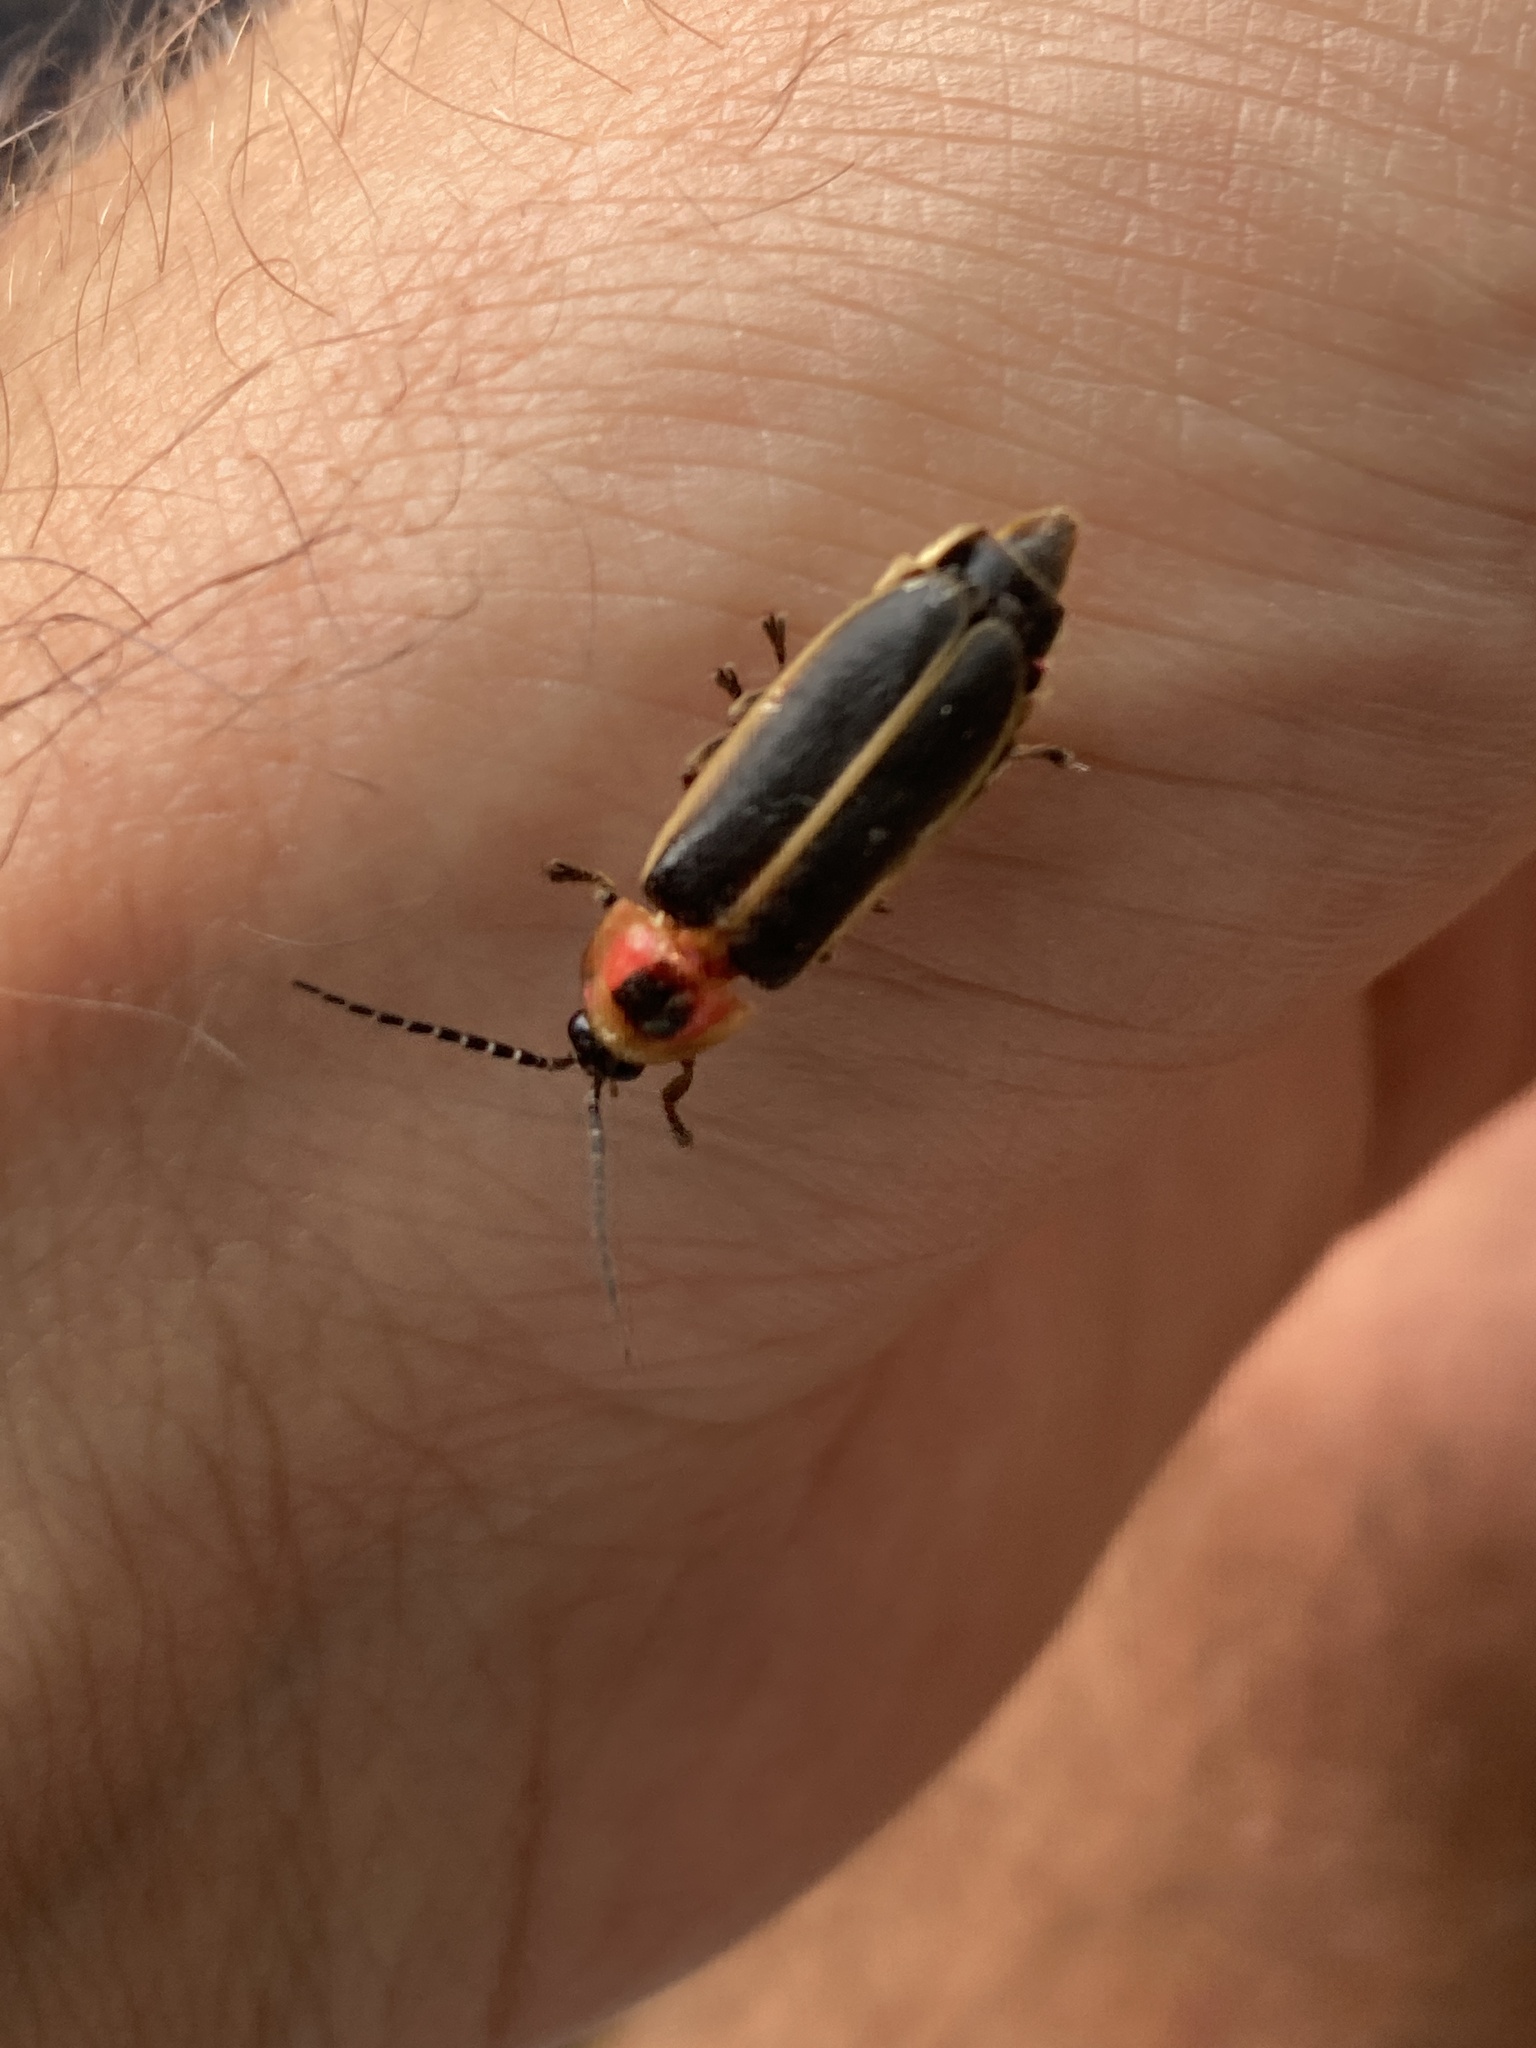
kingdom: Animalia
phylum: Arthropoda
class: Insecta
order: Coleoptera
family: Lampyridae
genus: Photinus
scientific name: Photinus pyralis
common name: Big dipper firefly
